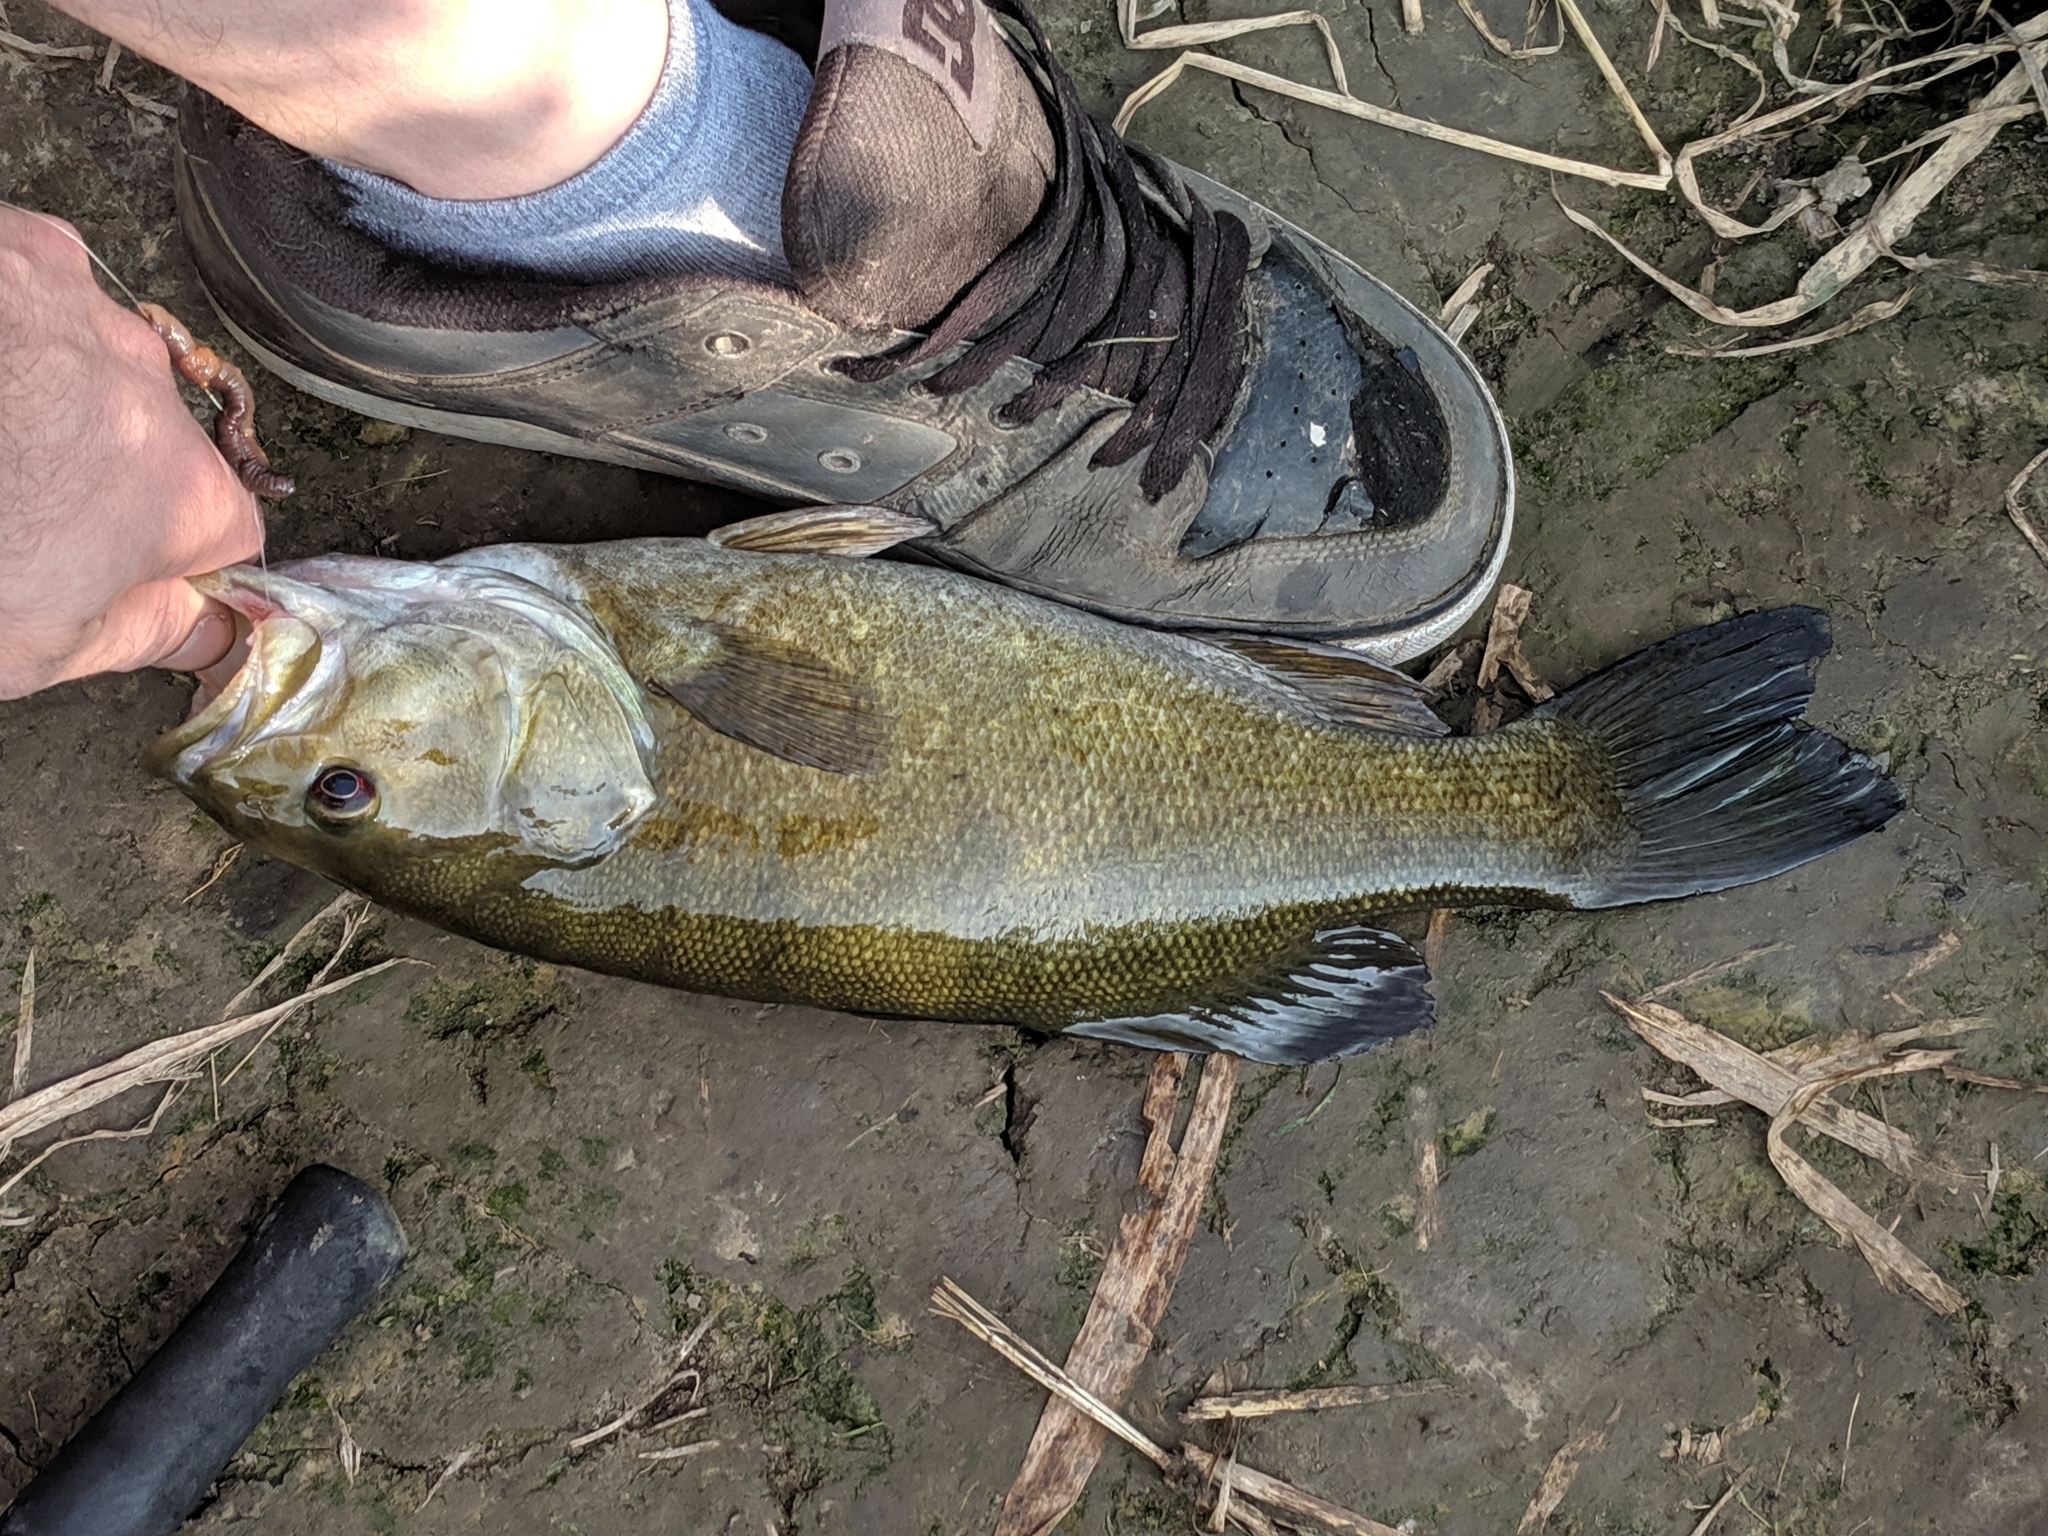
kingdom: Animalia
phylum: Chordata
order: Perciformes
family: Centrarchidae
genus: Micropterus
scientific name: Micropterus dolomieu
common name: Smallmouth bass
